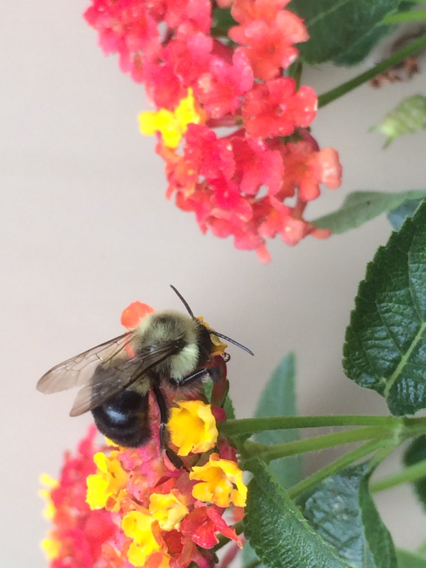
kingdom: Animalia
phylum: Arthropoda
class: Insecta
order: Hymenoptera
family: Apidae
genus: Bombus
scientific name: Bombus impatiens
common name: Common eastern bumble bee
